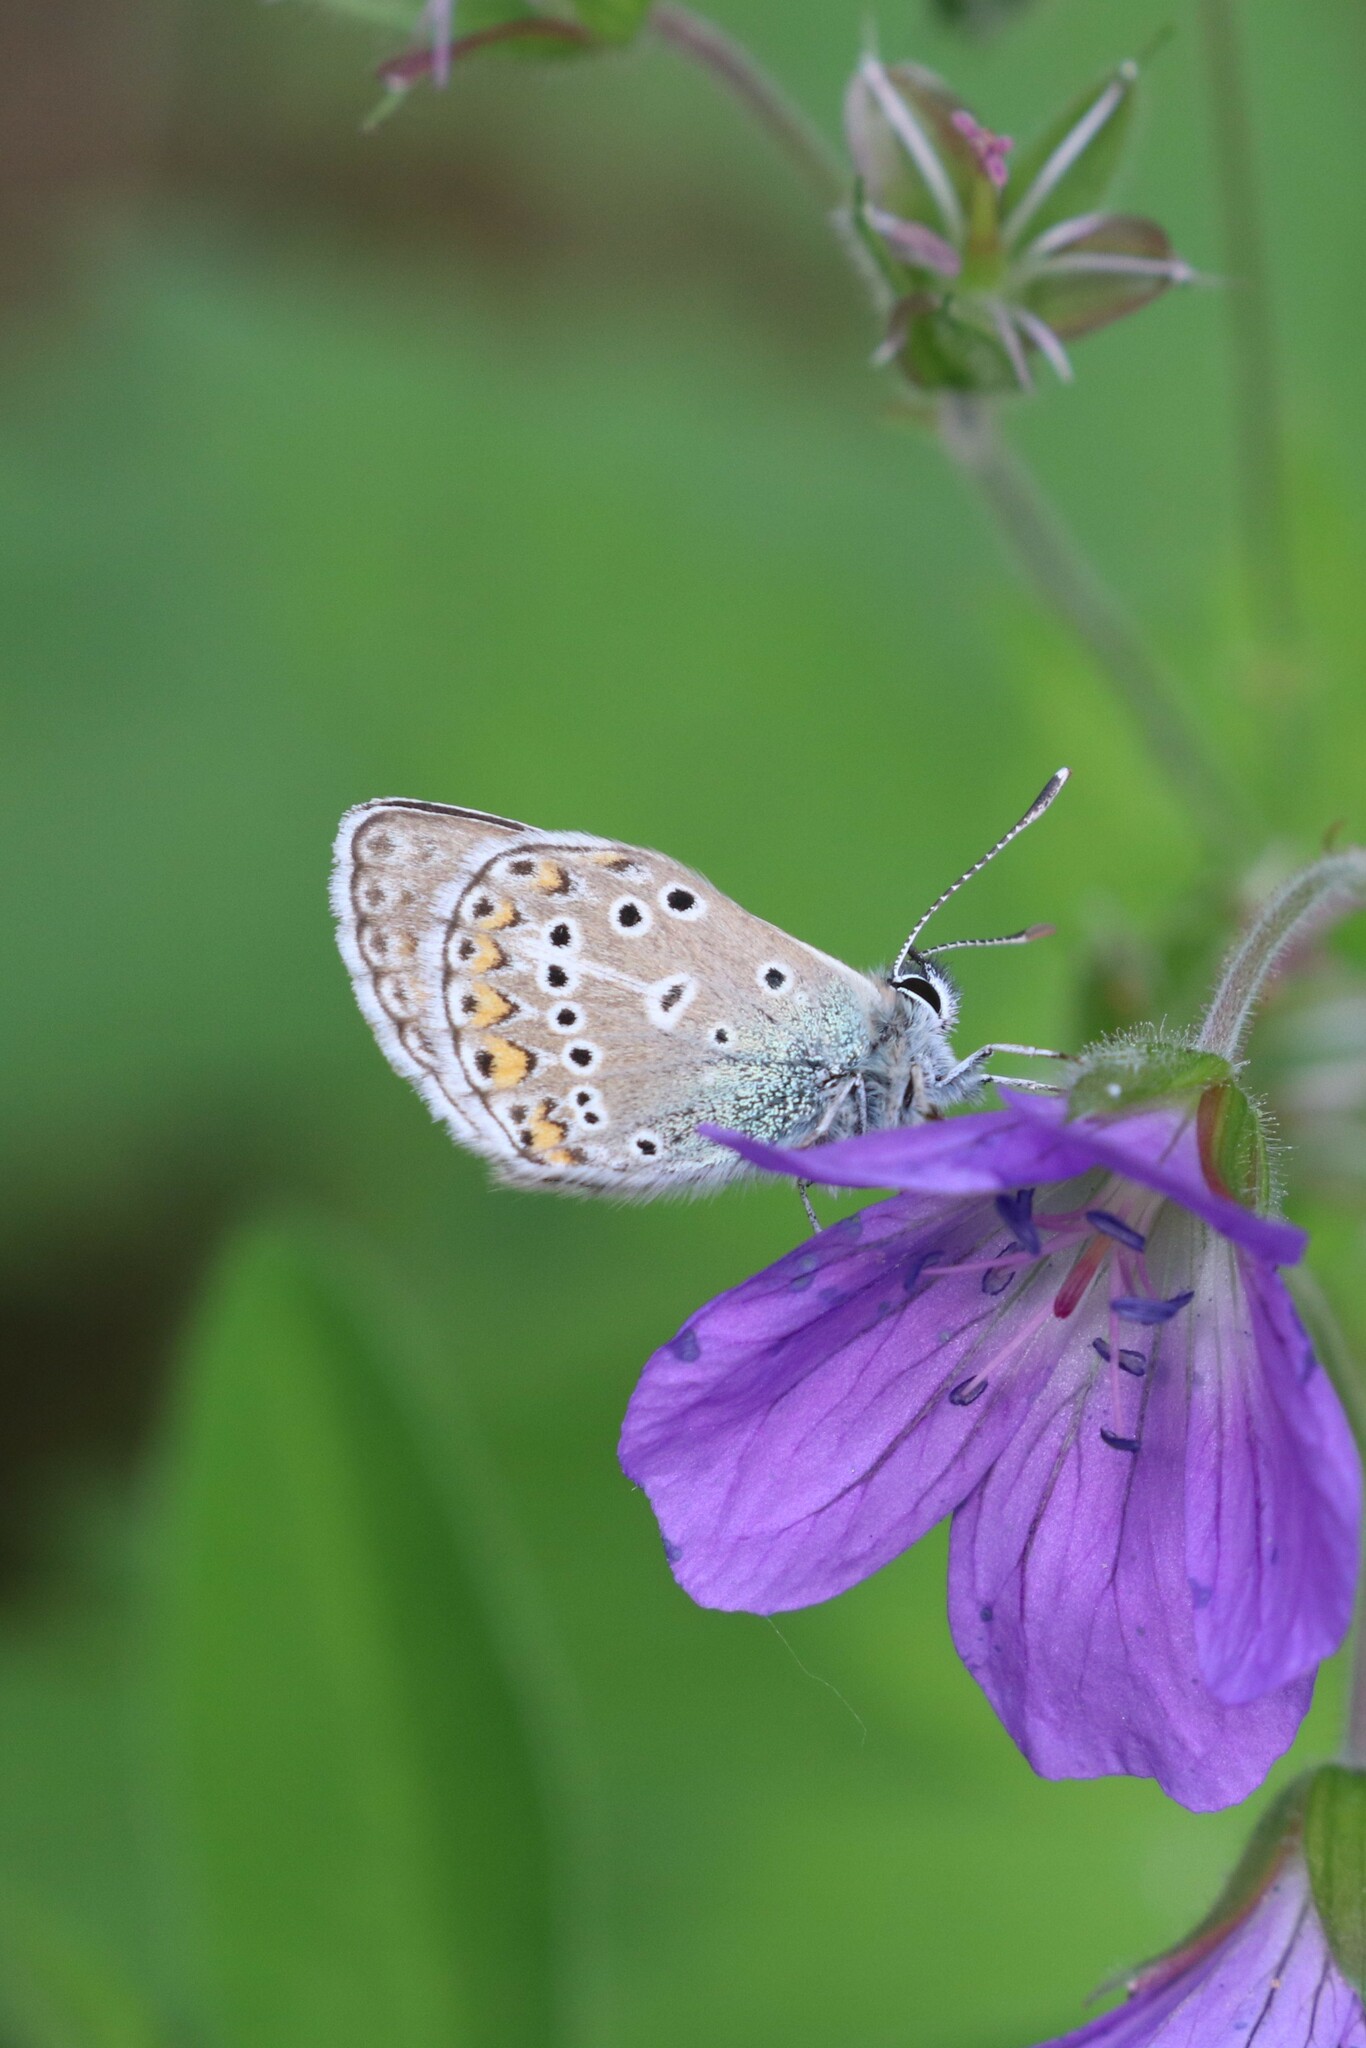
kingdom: Animalia
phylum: Arthropoda
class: Insecta
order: Lepidoptera
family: Lycaenidae
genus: Eumedonia
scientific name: Eumedonia eumedon
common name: Geranium argus
